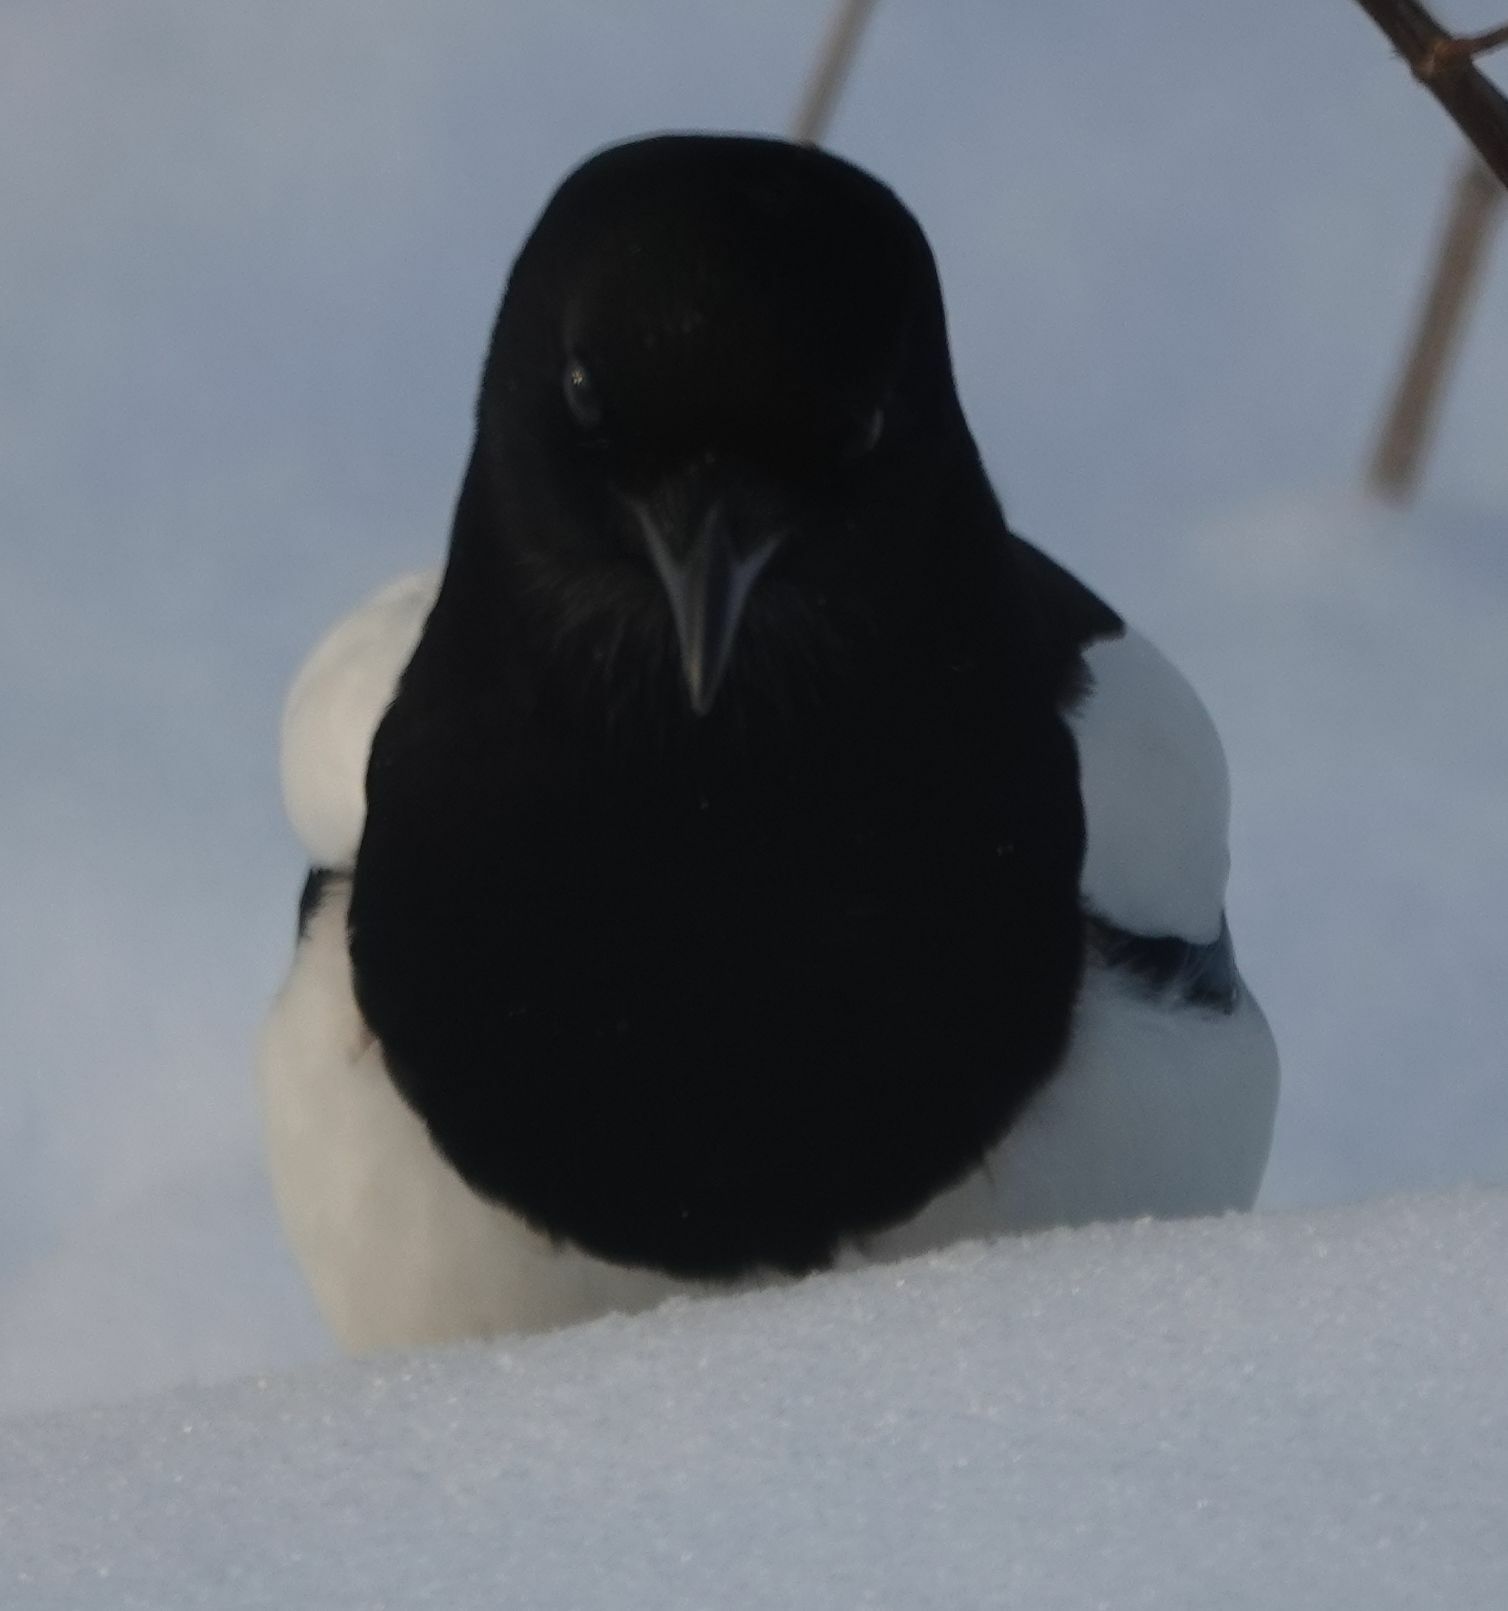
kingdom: Animalia
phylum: Chordata
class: Aves
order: Passeriformes
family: Corvidae
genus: Pica
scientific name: Pica pica
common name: Eurasian magpie
